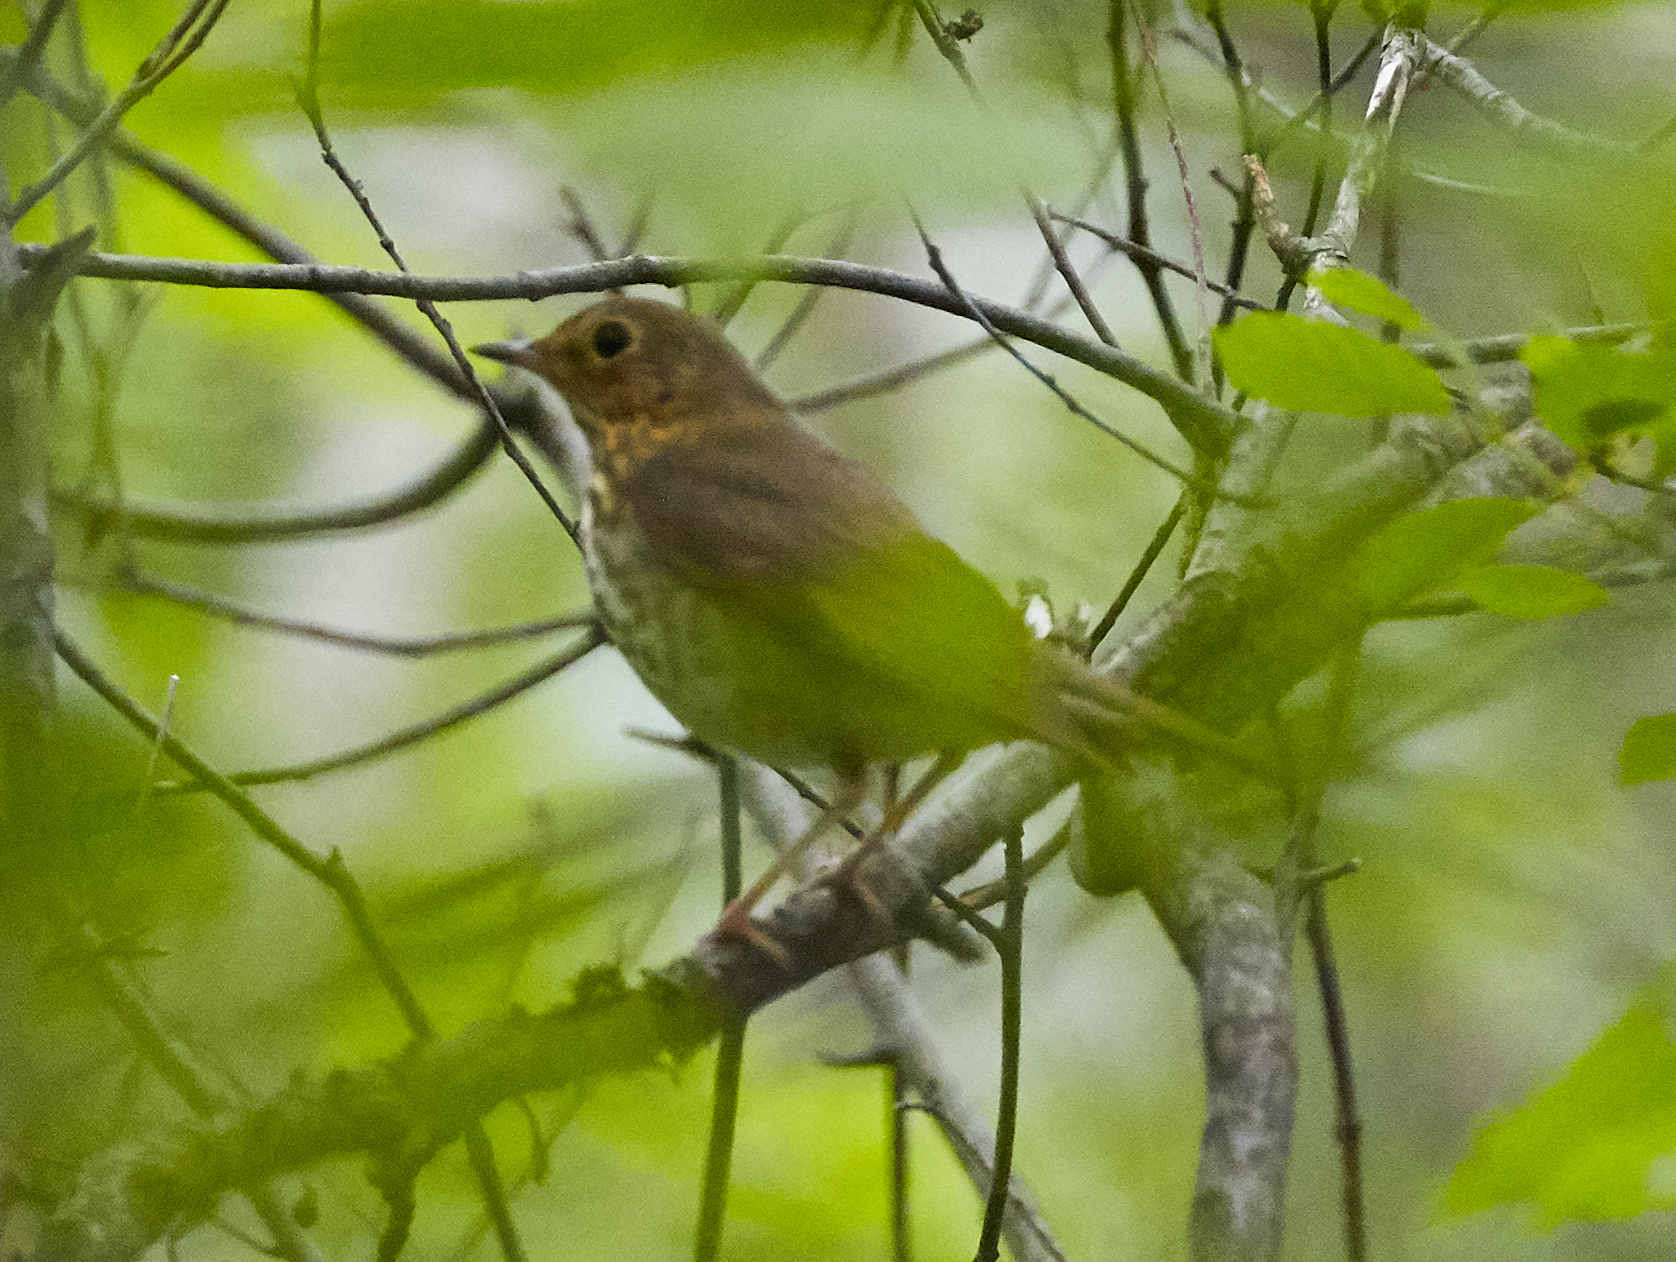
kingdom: Animalia
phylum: Chordata
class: Aves
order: Passeriformes
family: Turdidae
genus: Catharus
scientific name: Catharus ustulatus
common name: Swainson's thrush
